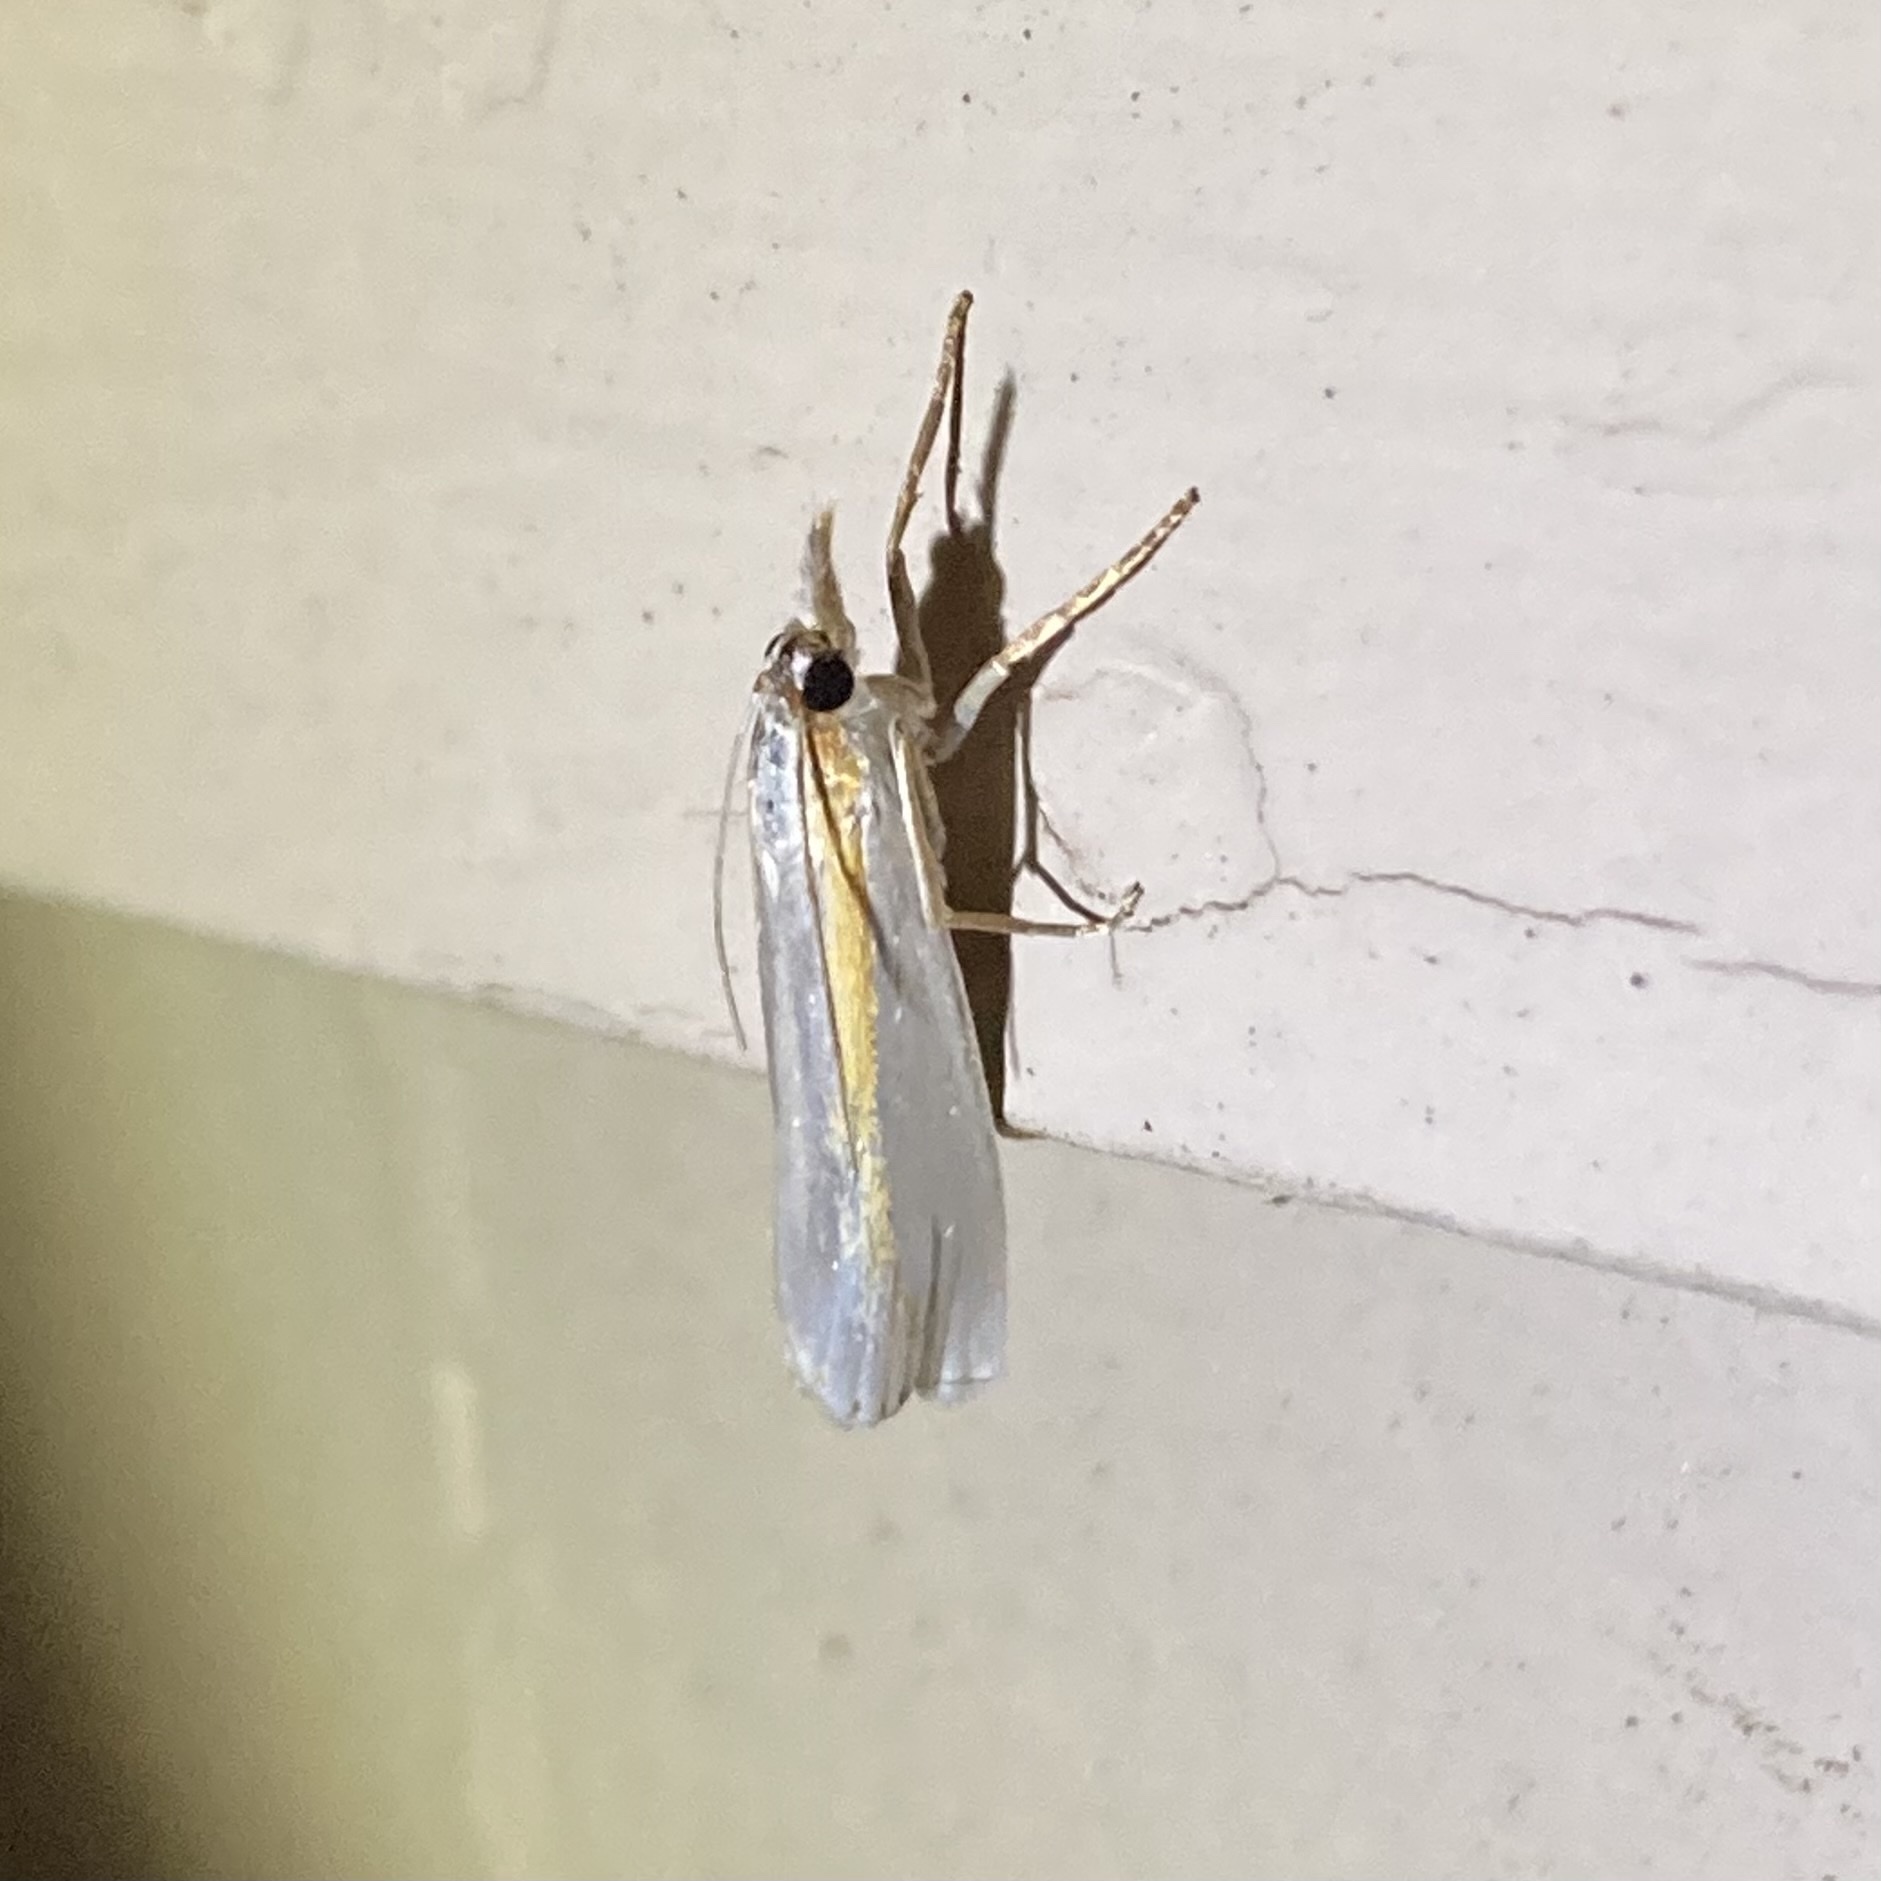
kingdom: Animalia
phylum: Arthropoda
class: Insecta
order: Lepidoptera
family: Crambidae
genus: Crambus
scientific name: Crambus girardellus
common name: Girard's grass-veneer
